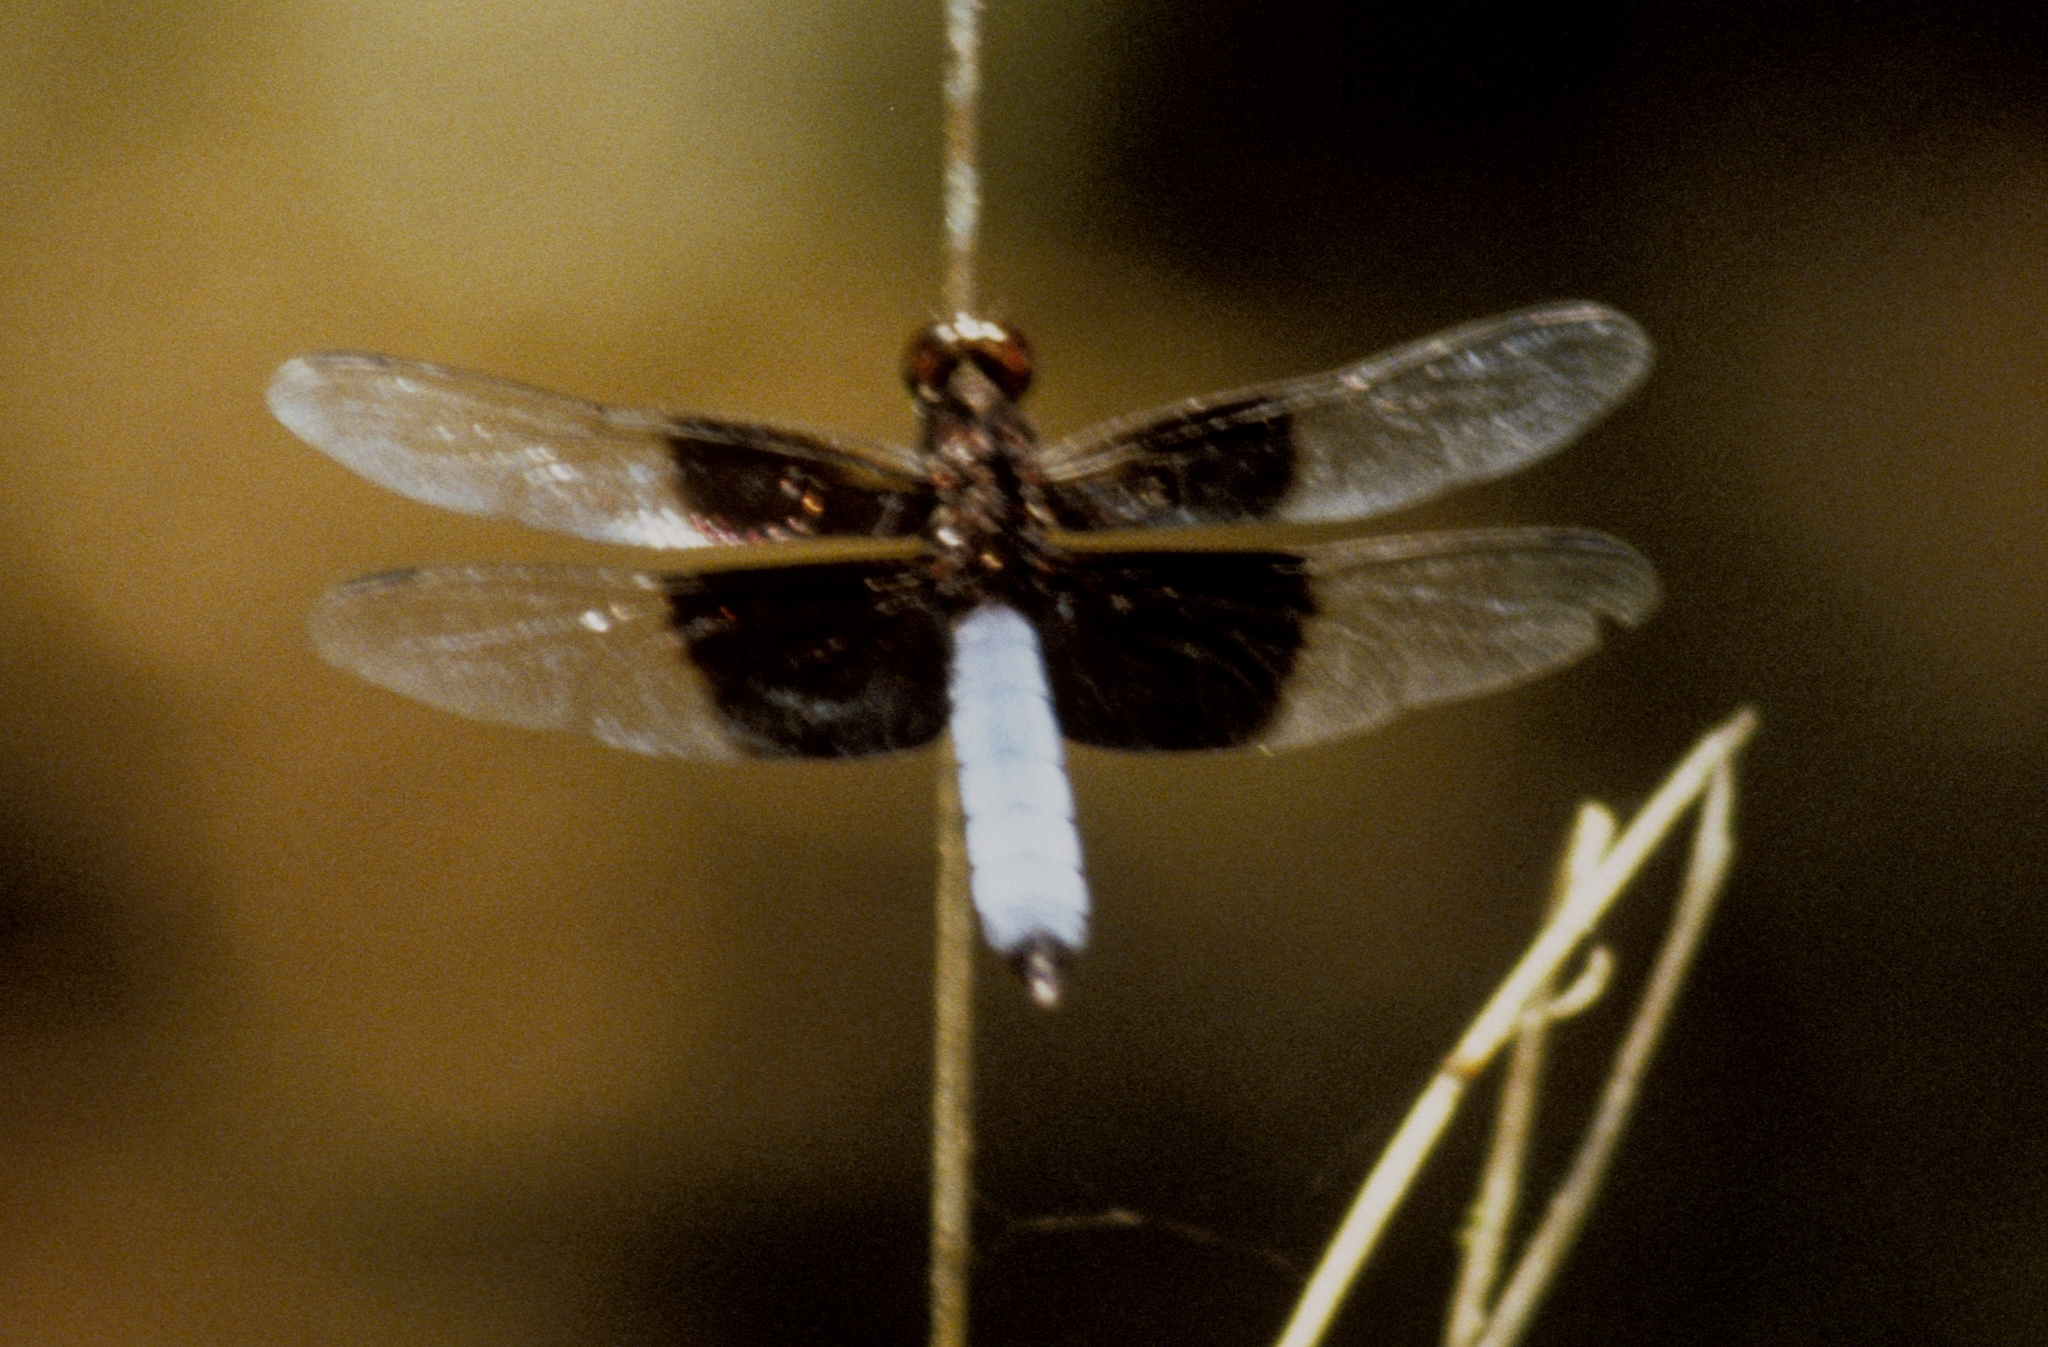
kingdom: Animalia
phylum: Arthropoda
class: Insecta
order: Odonata
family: Libellulidae
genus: Thermorthemis
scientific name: Thermorthemis madagascariensis
